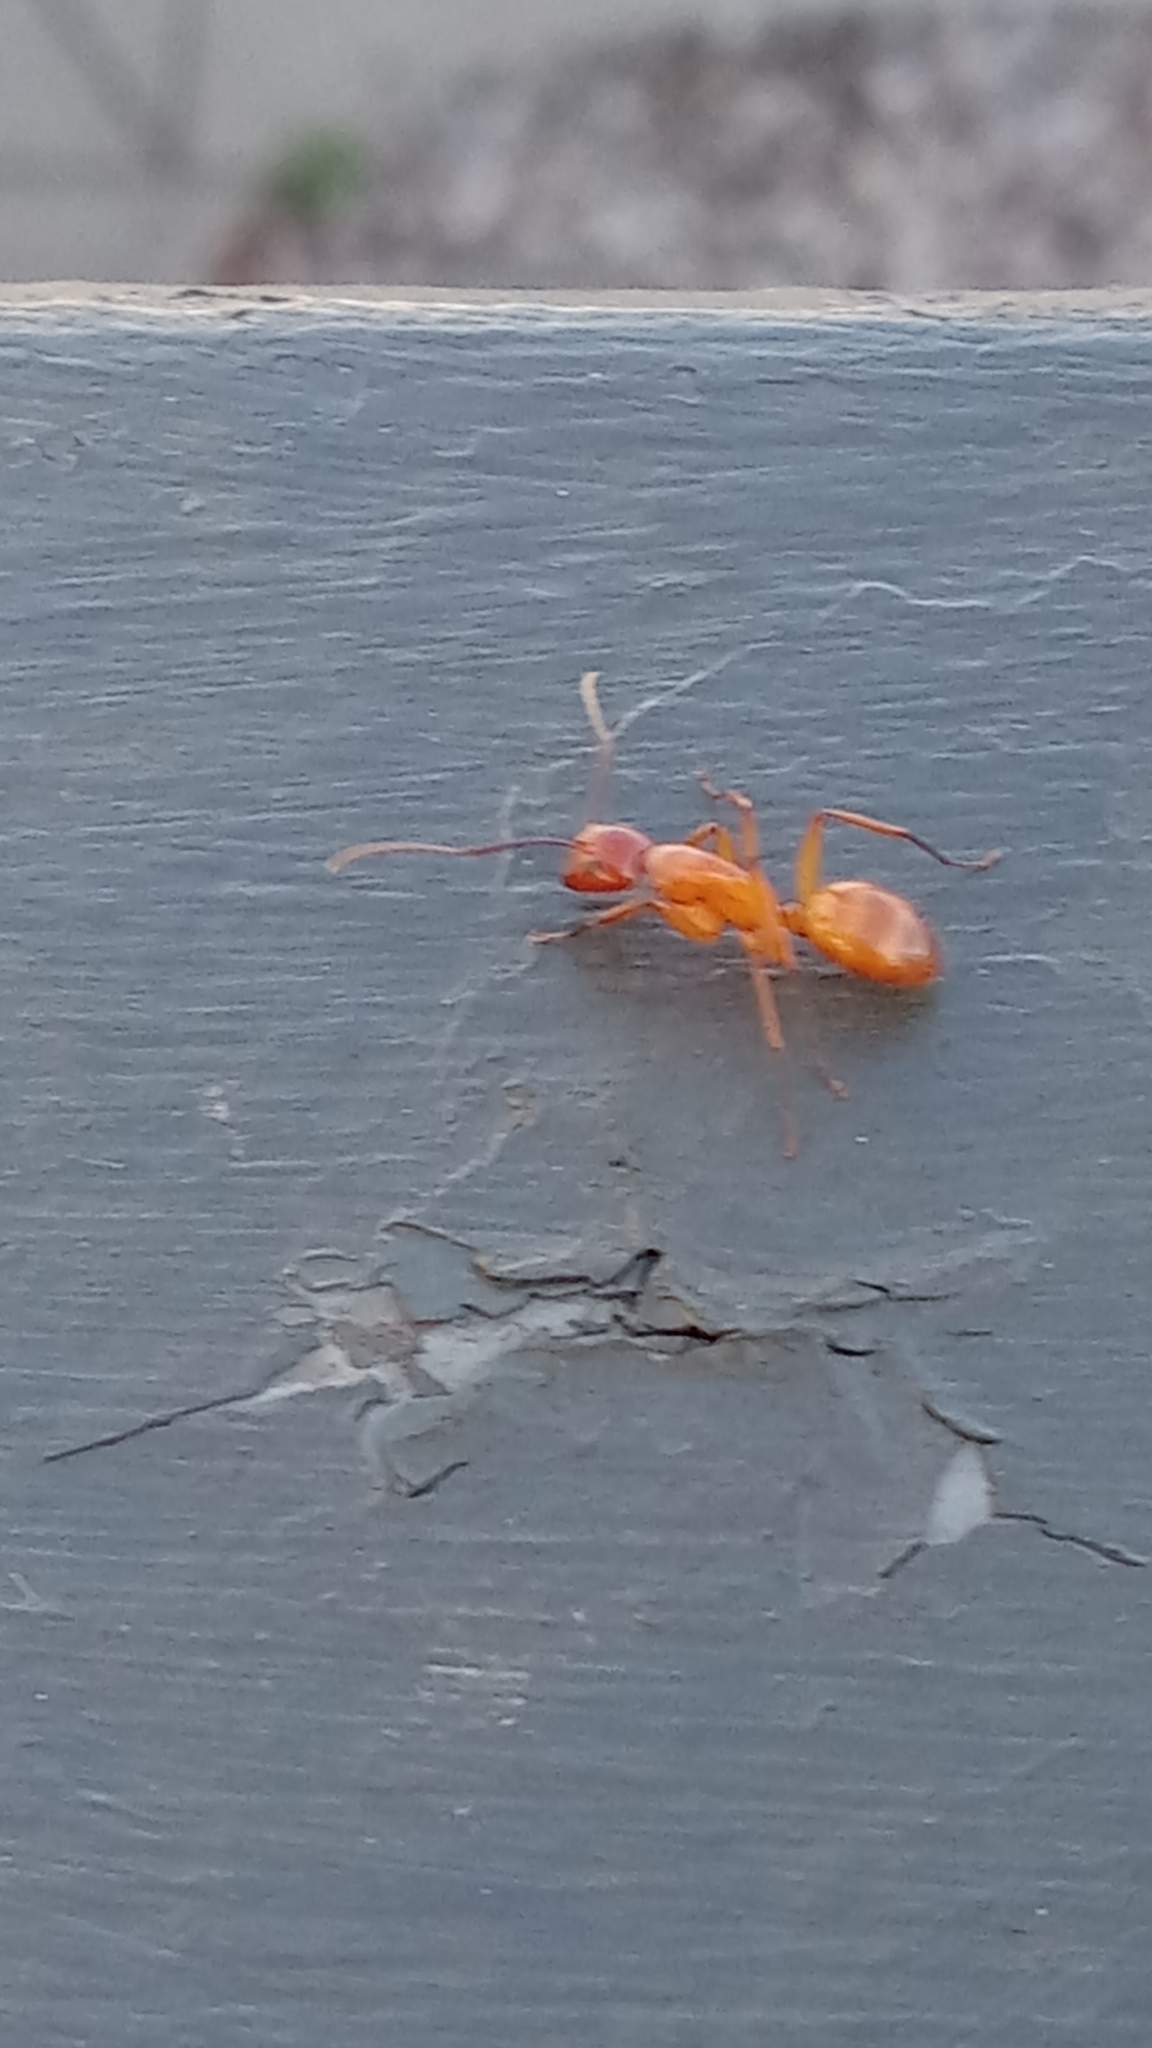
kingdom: Animalia
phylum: Arthropoda
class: Insecta
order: Hymenoptera
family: Formicidae
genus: Camponotus
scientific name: Camponotus castaneus
